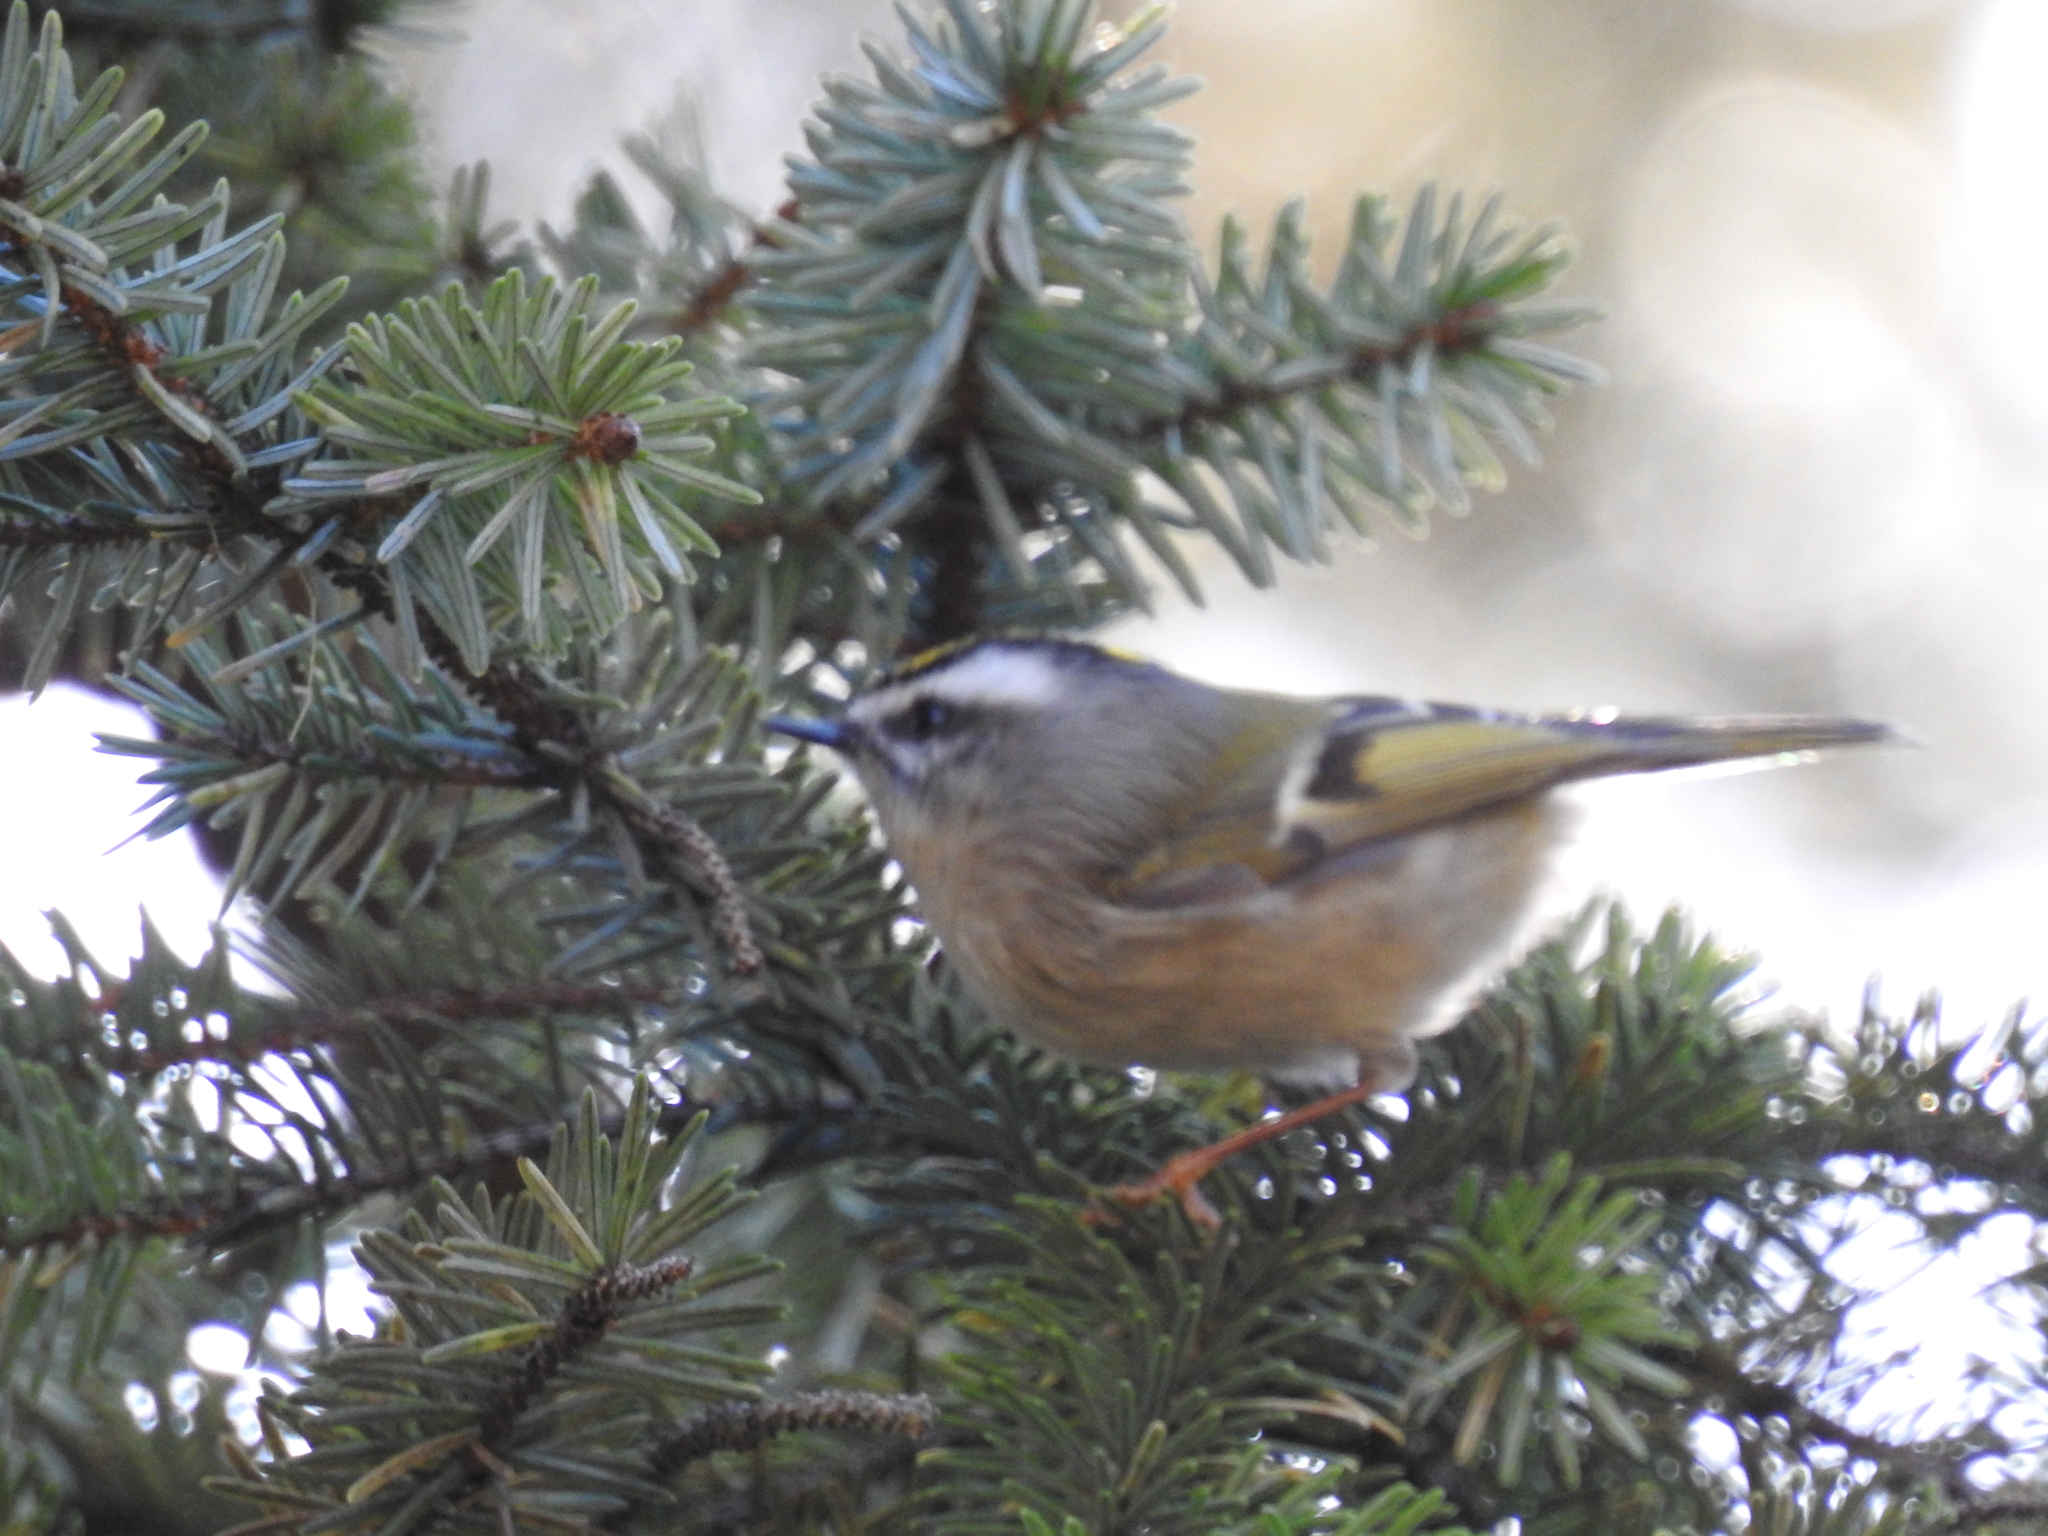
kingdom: Animalia
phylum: Chordata
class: Aves
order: Passeriformes
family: Regulidae
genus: Regulus
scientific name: Regulus satrapa
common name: Golden-crowned kinglet
